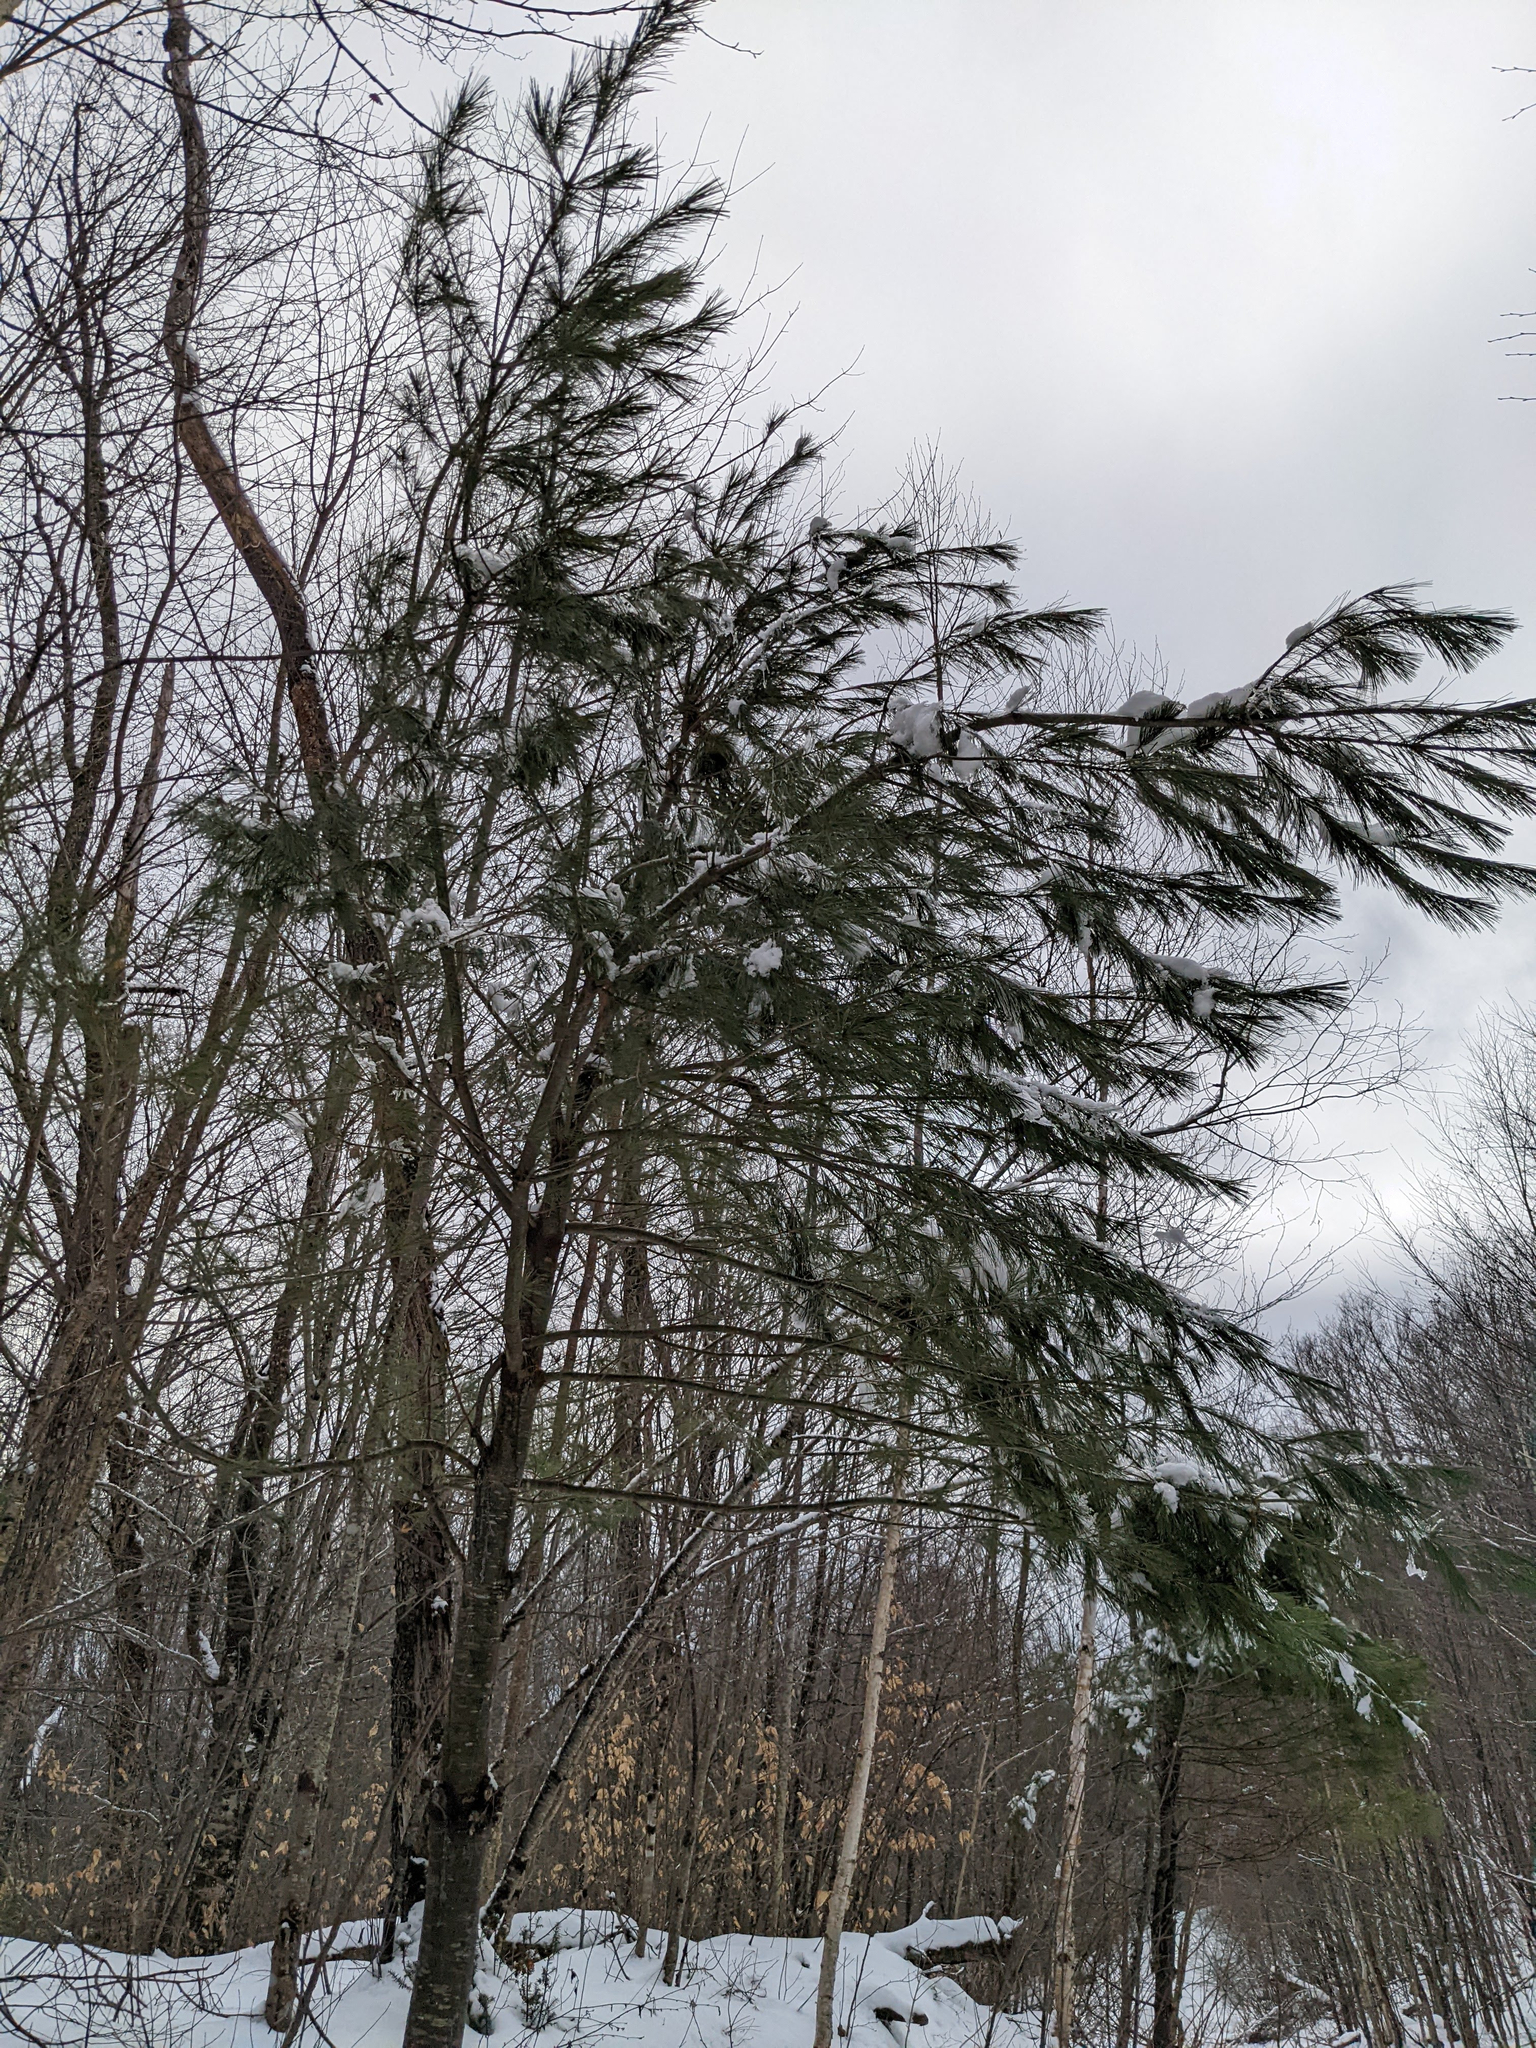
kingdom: Plantae
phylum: Tracheophyta
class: Pinopsida
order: Pinales
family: Pinaceae
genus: Pinus
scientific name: Pinus strobus
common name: Weymouth pine
